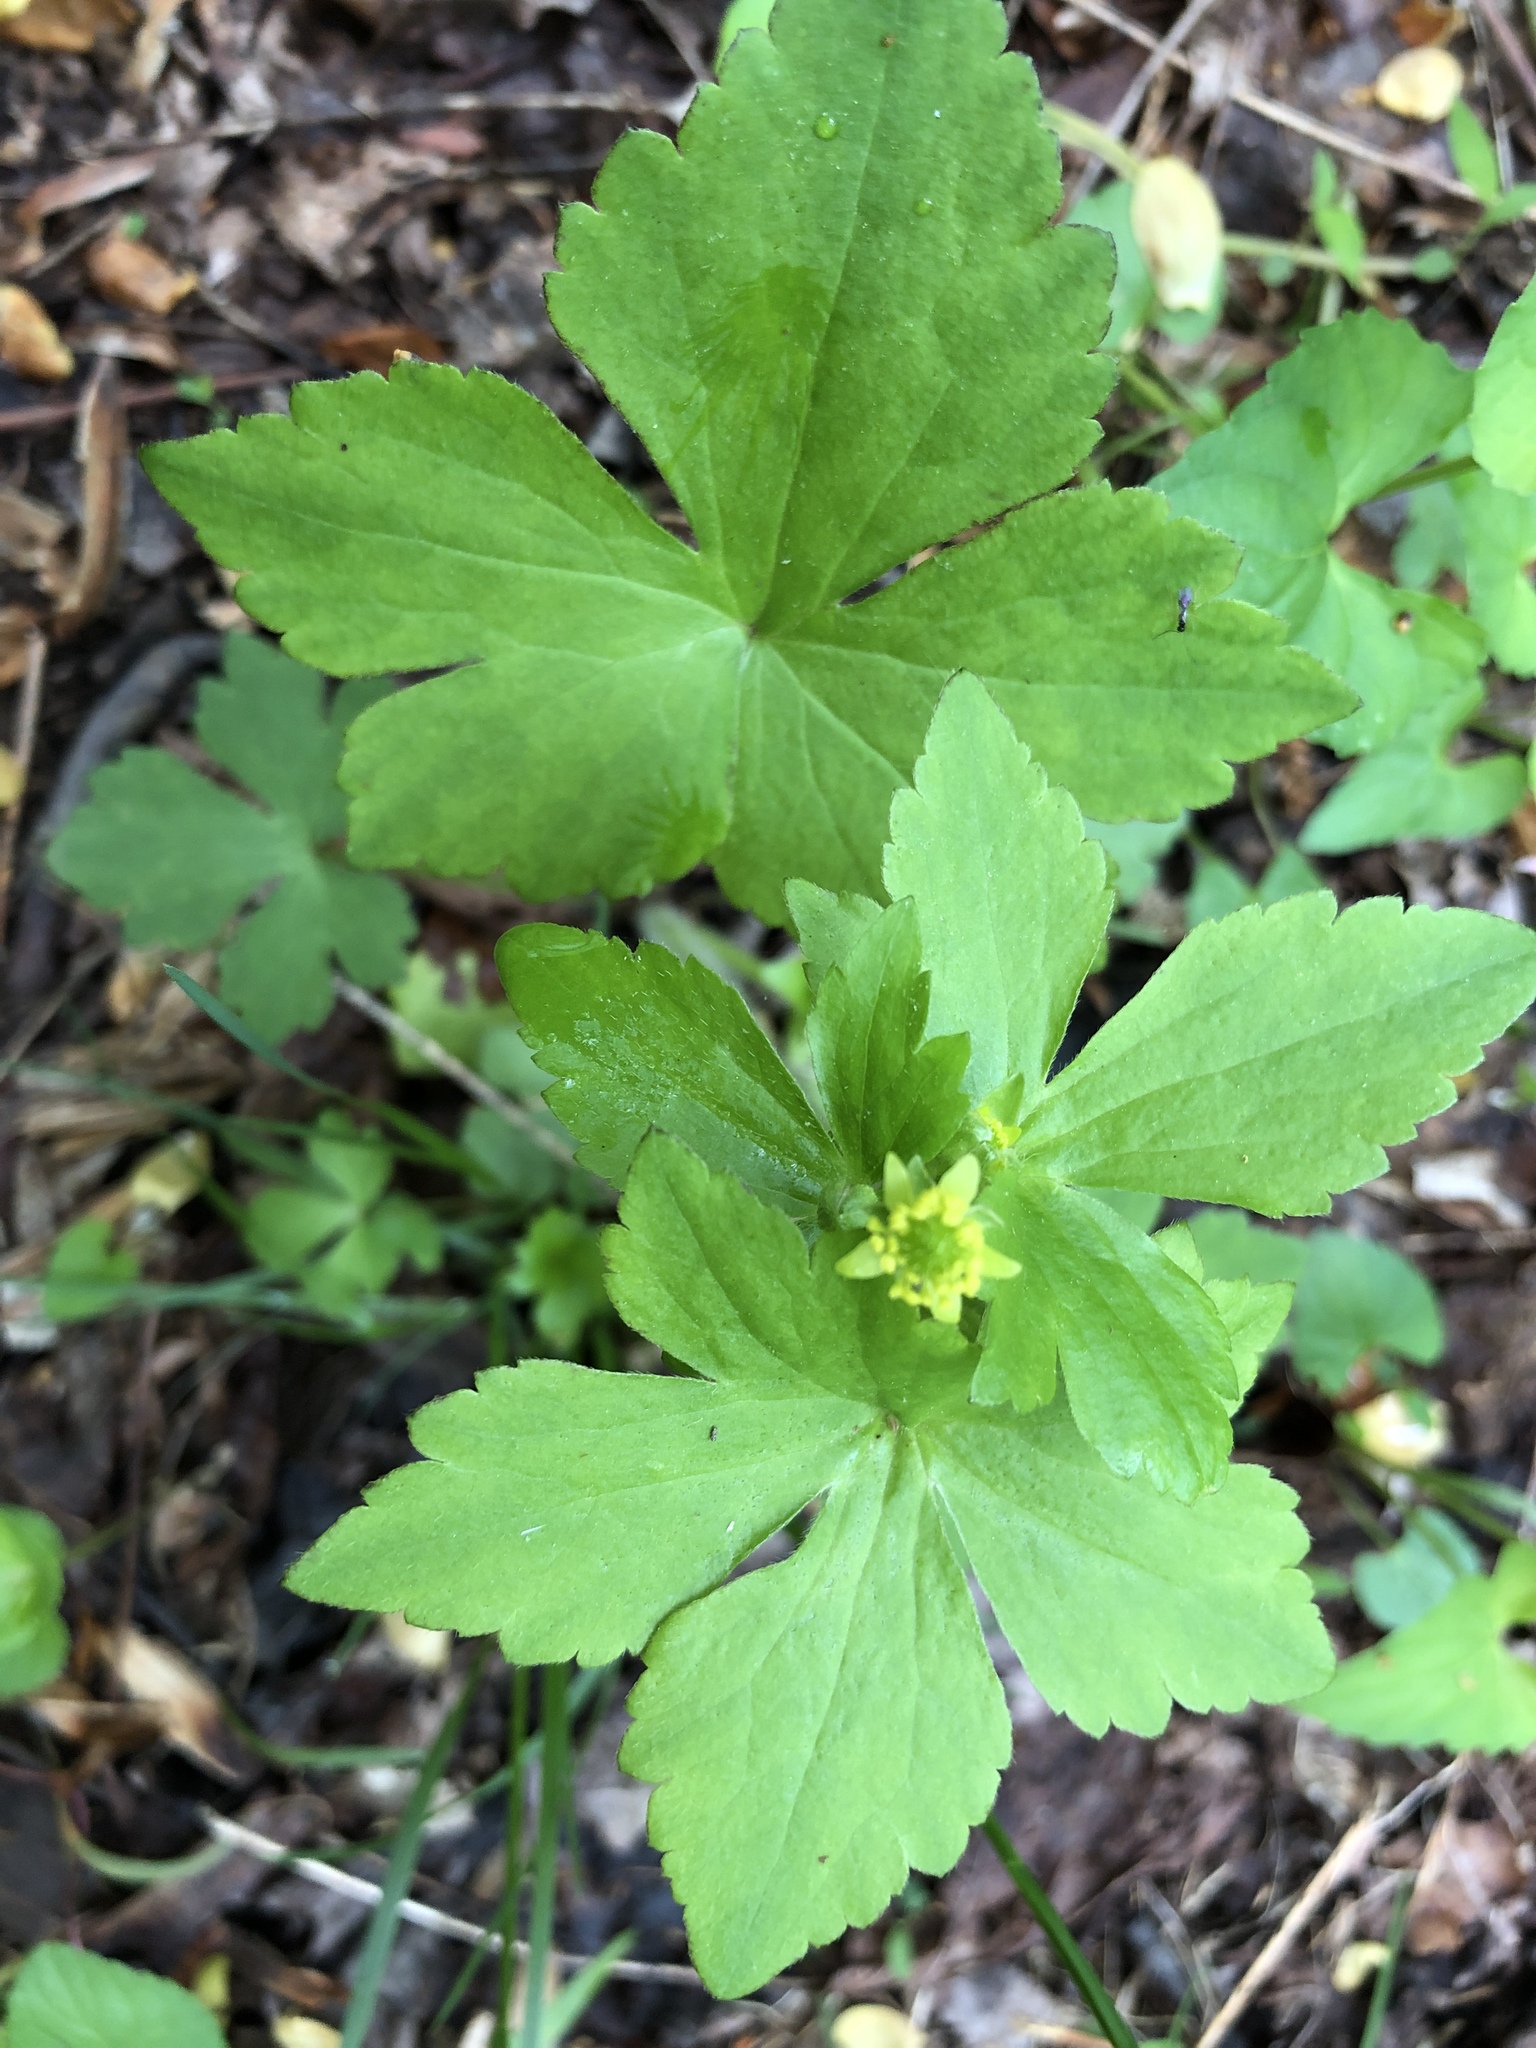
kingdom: Plantae
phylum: Tracheophyta
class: Magnoliopsida
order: Ranunculales
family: Ranunculaceae
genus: Ranunculus
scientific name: Ranunculus recurvatus
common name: Blisterwort
